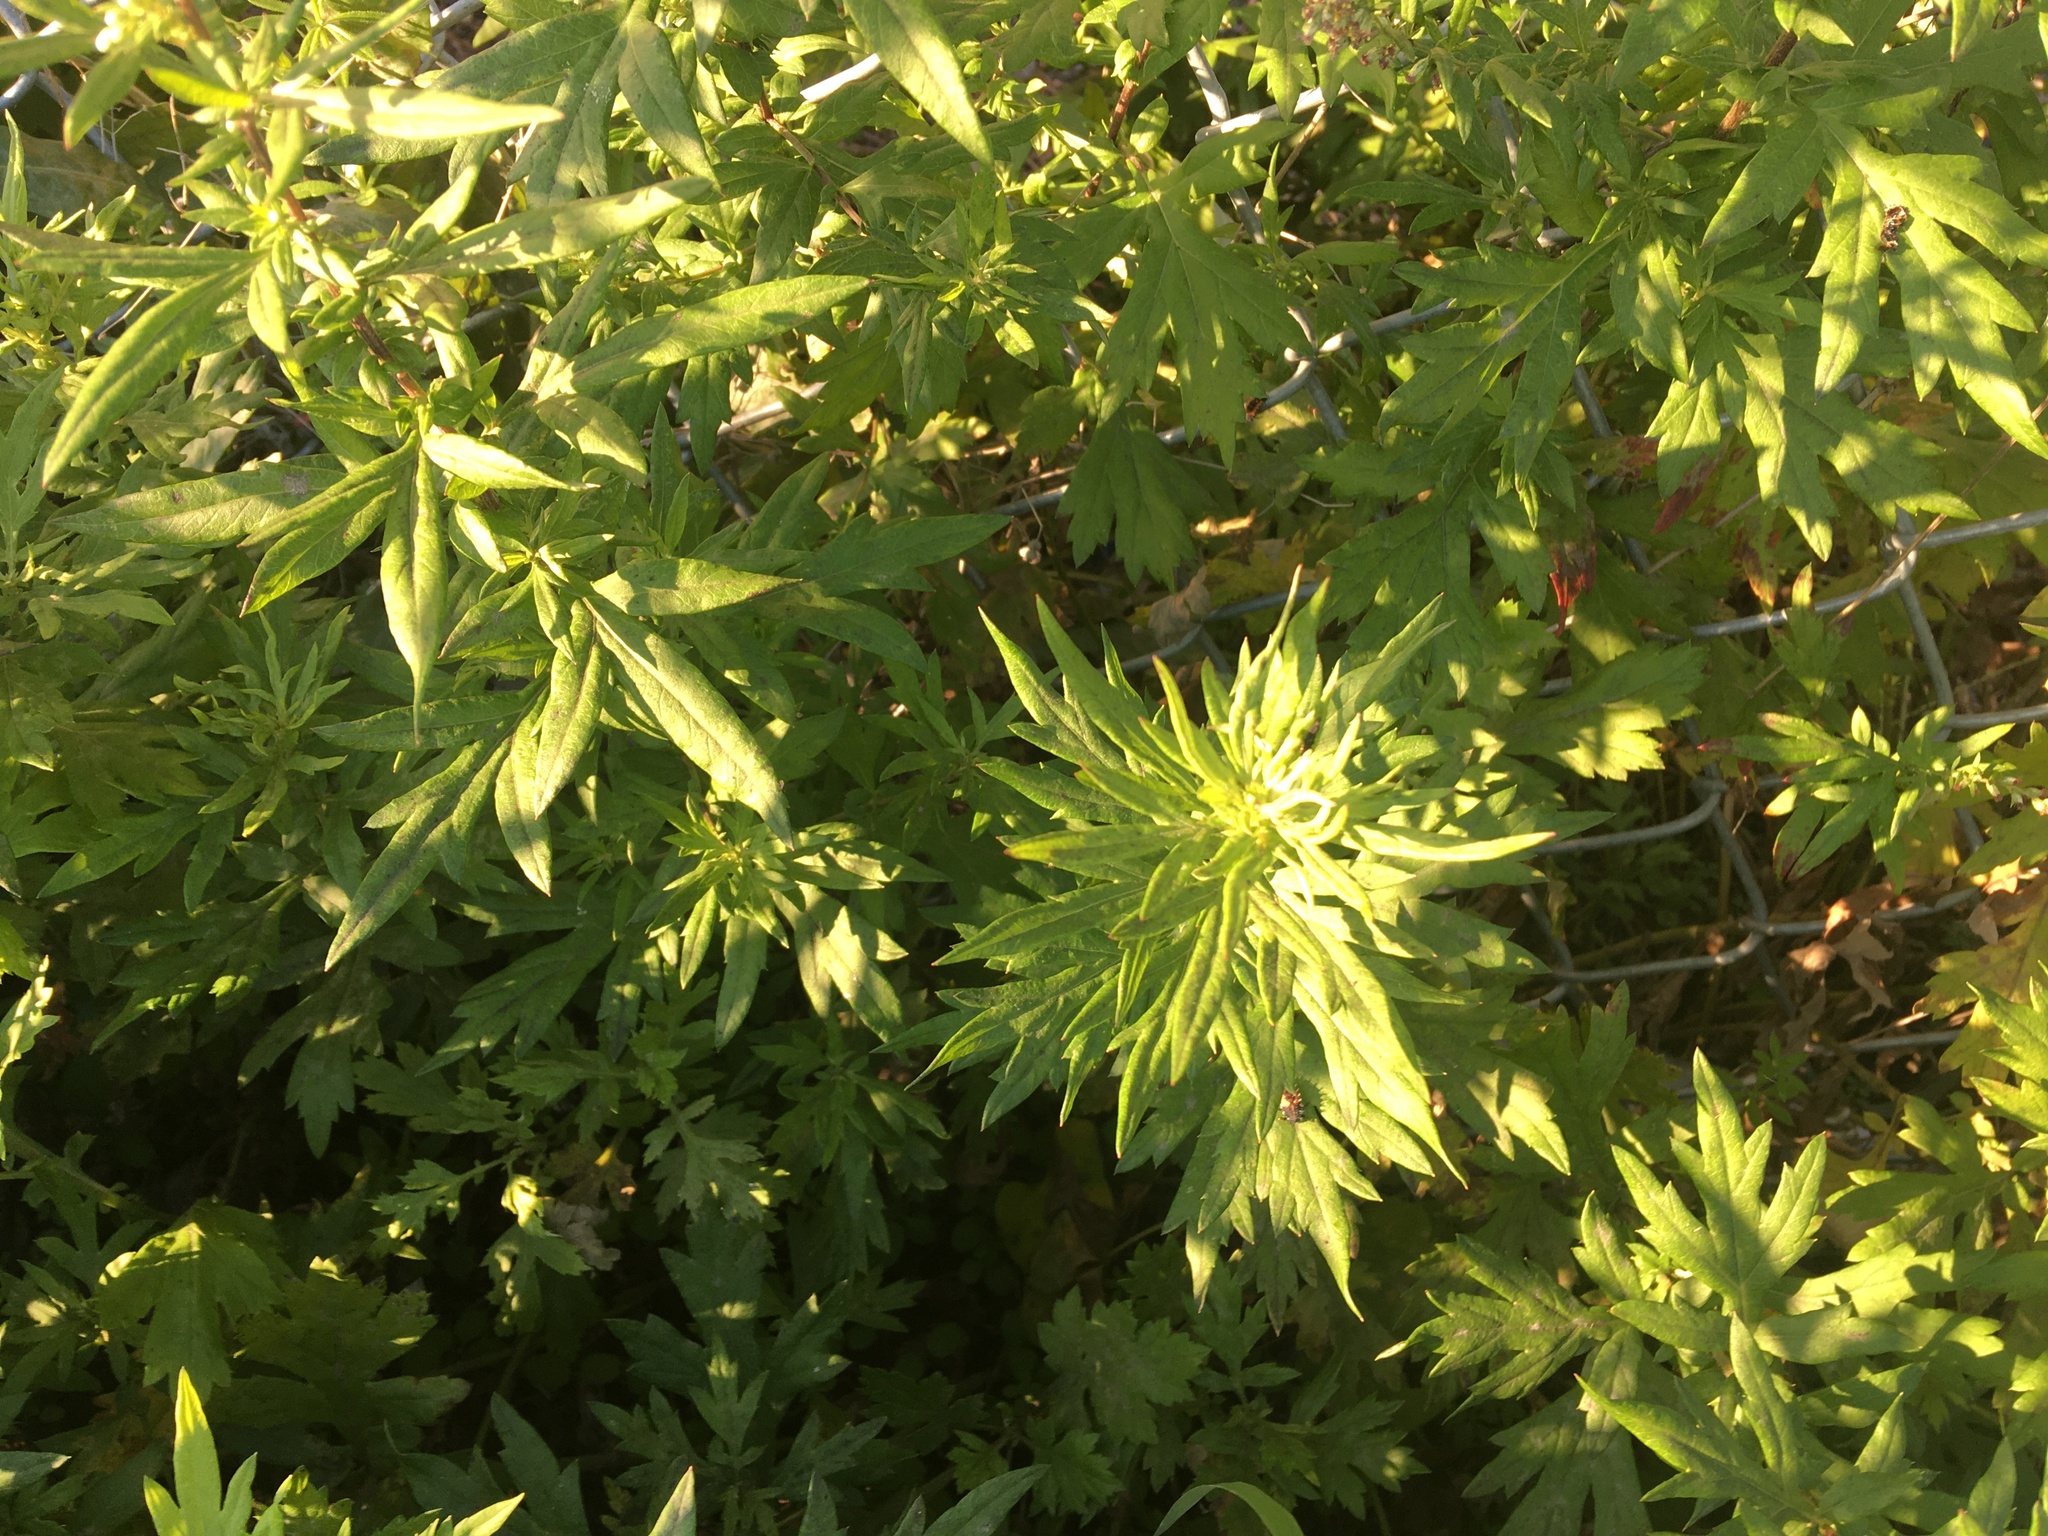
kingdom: Plantae
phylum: Tracheophyta
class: Magnoliopsida
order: Asterales
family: Asteraceae
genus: Artemisia
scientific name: Artemisia vulgaris
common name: Mugwort
